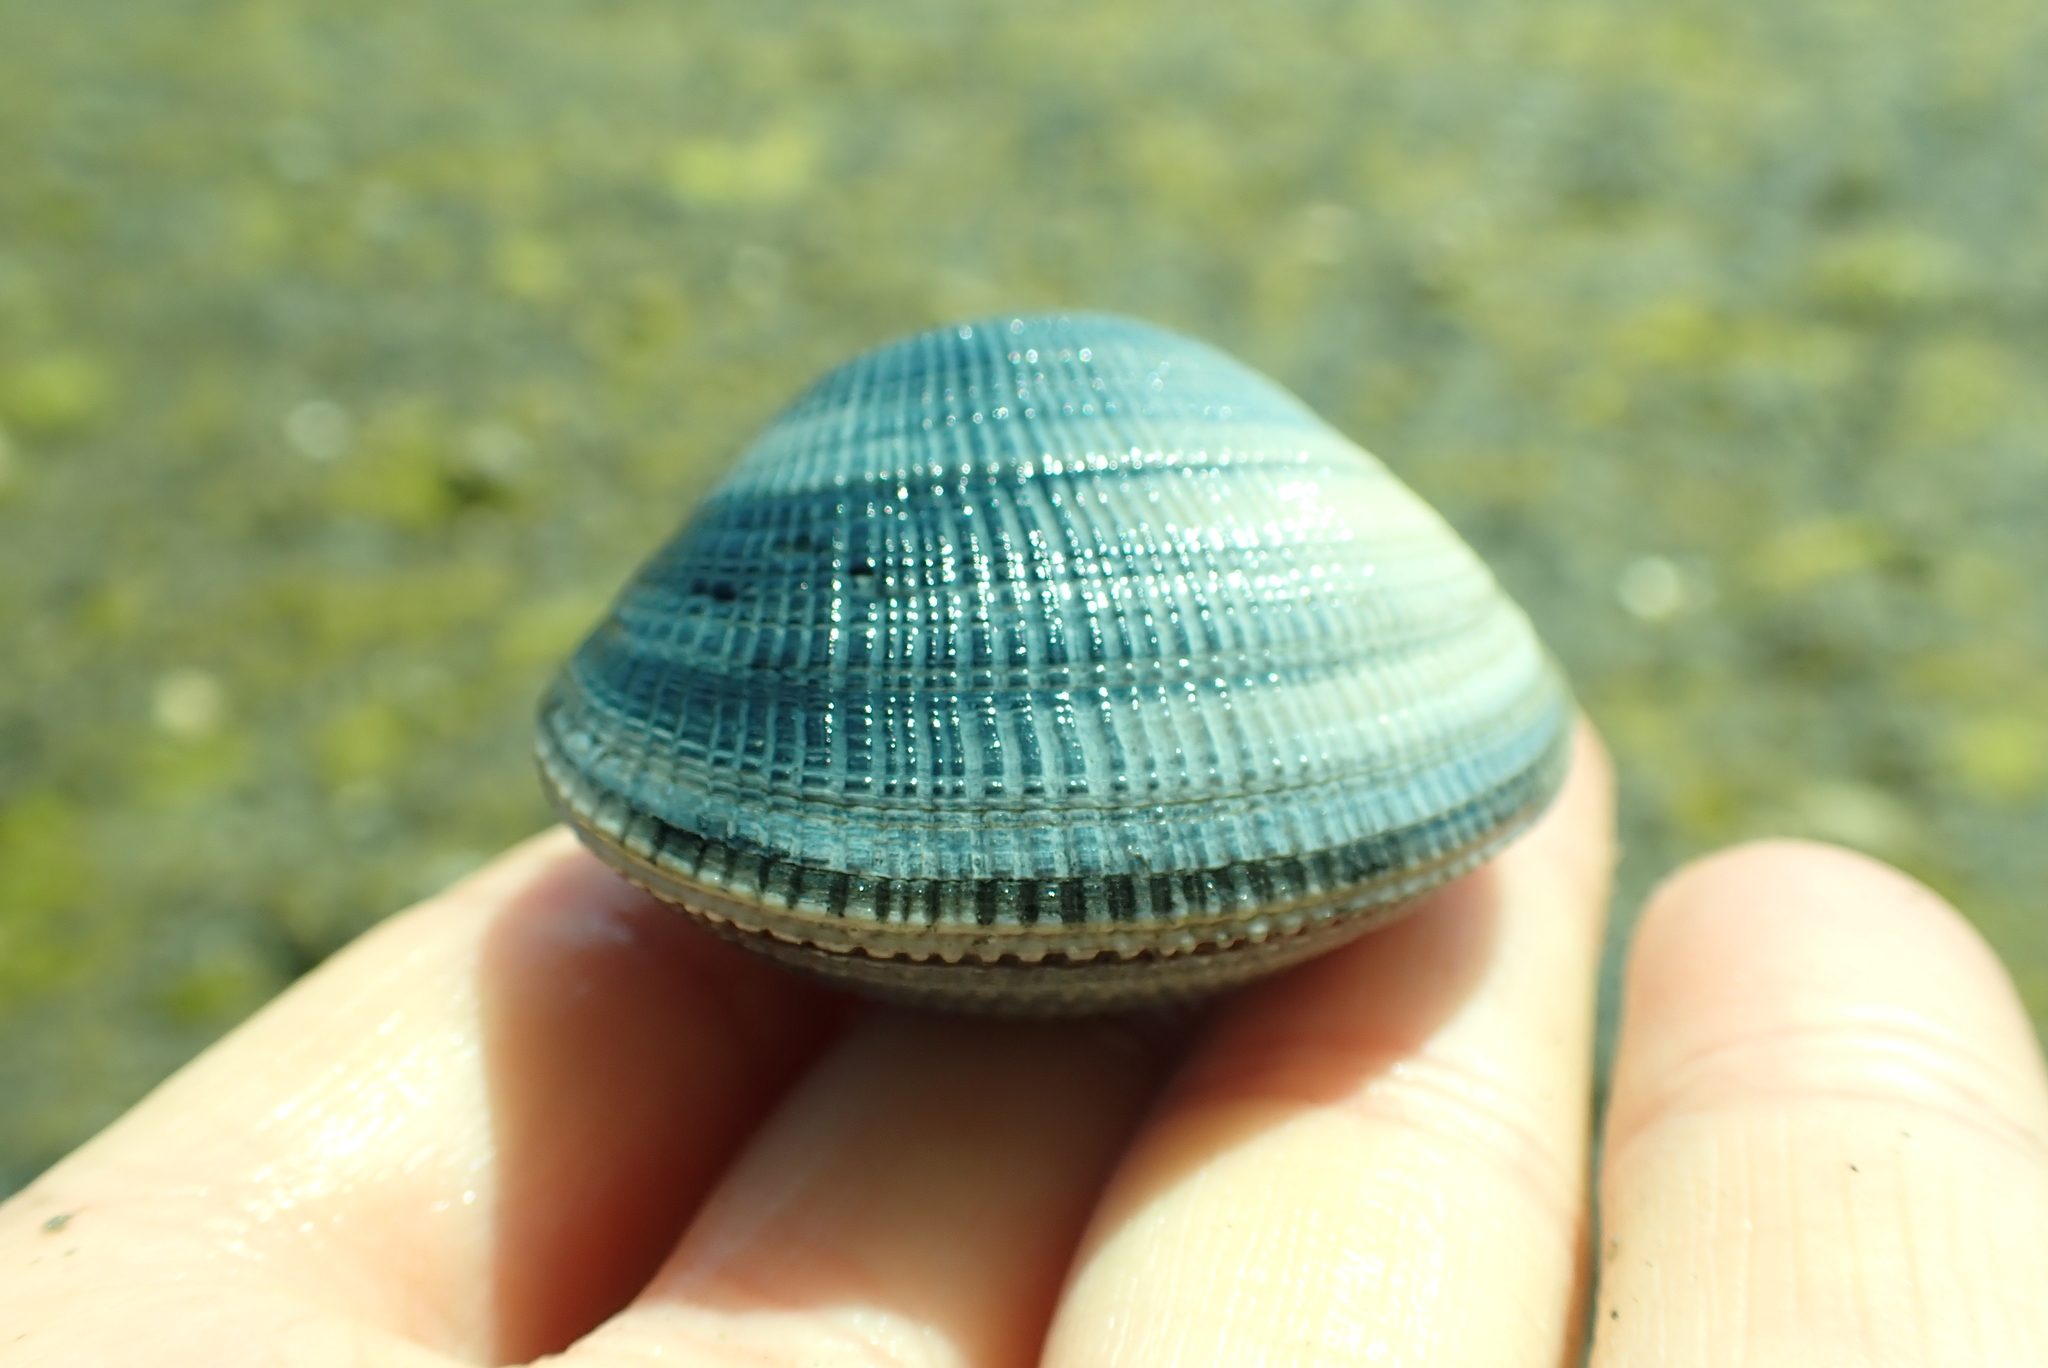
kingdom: Animalia
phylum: Mollusca
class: Bivalvia
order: Venerida
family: Veneridae
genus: Leukoma
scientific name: Leukoma staminea
